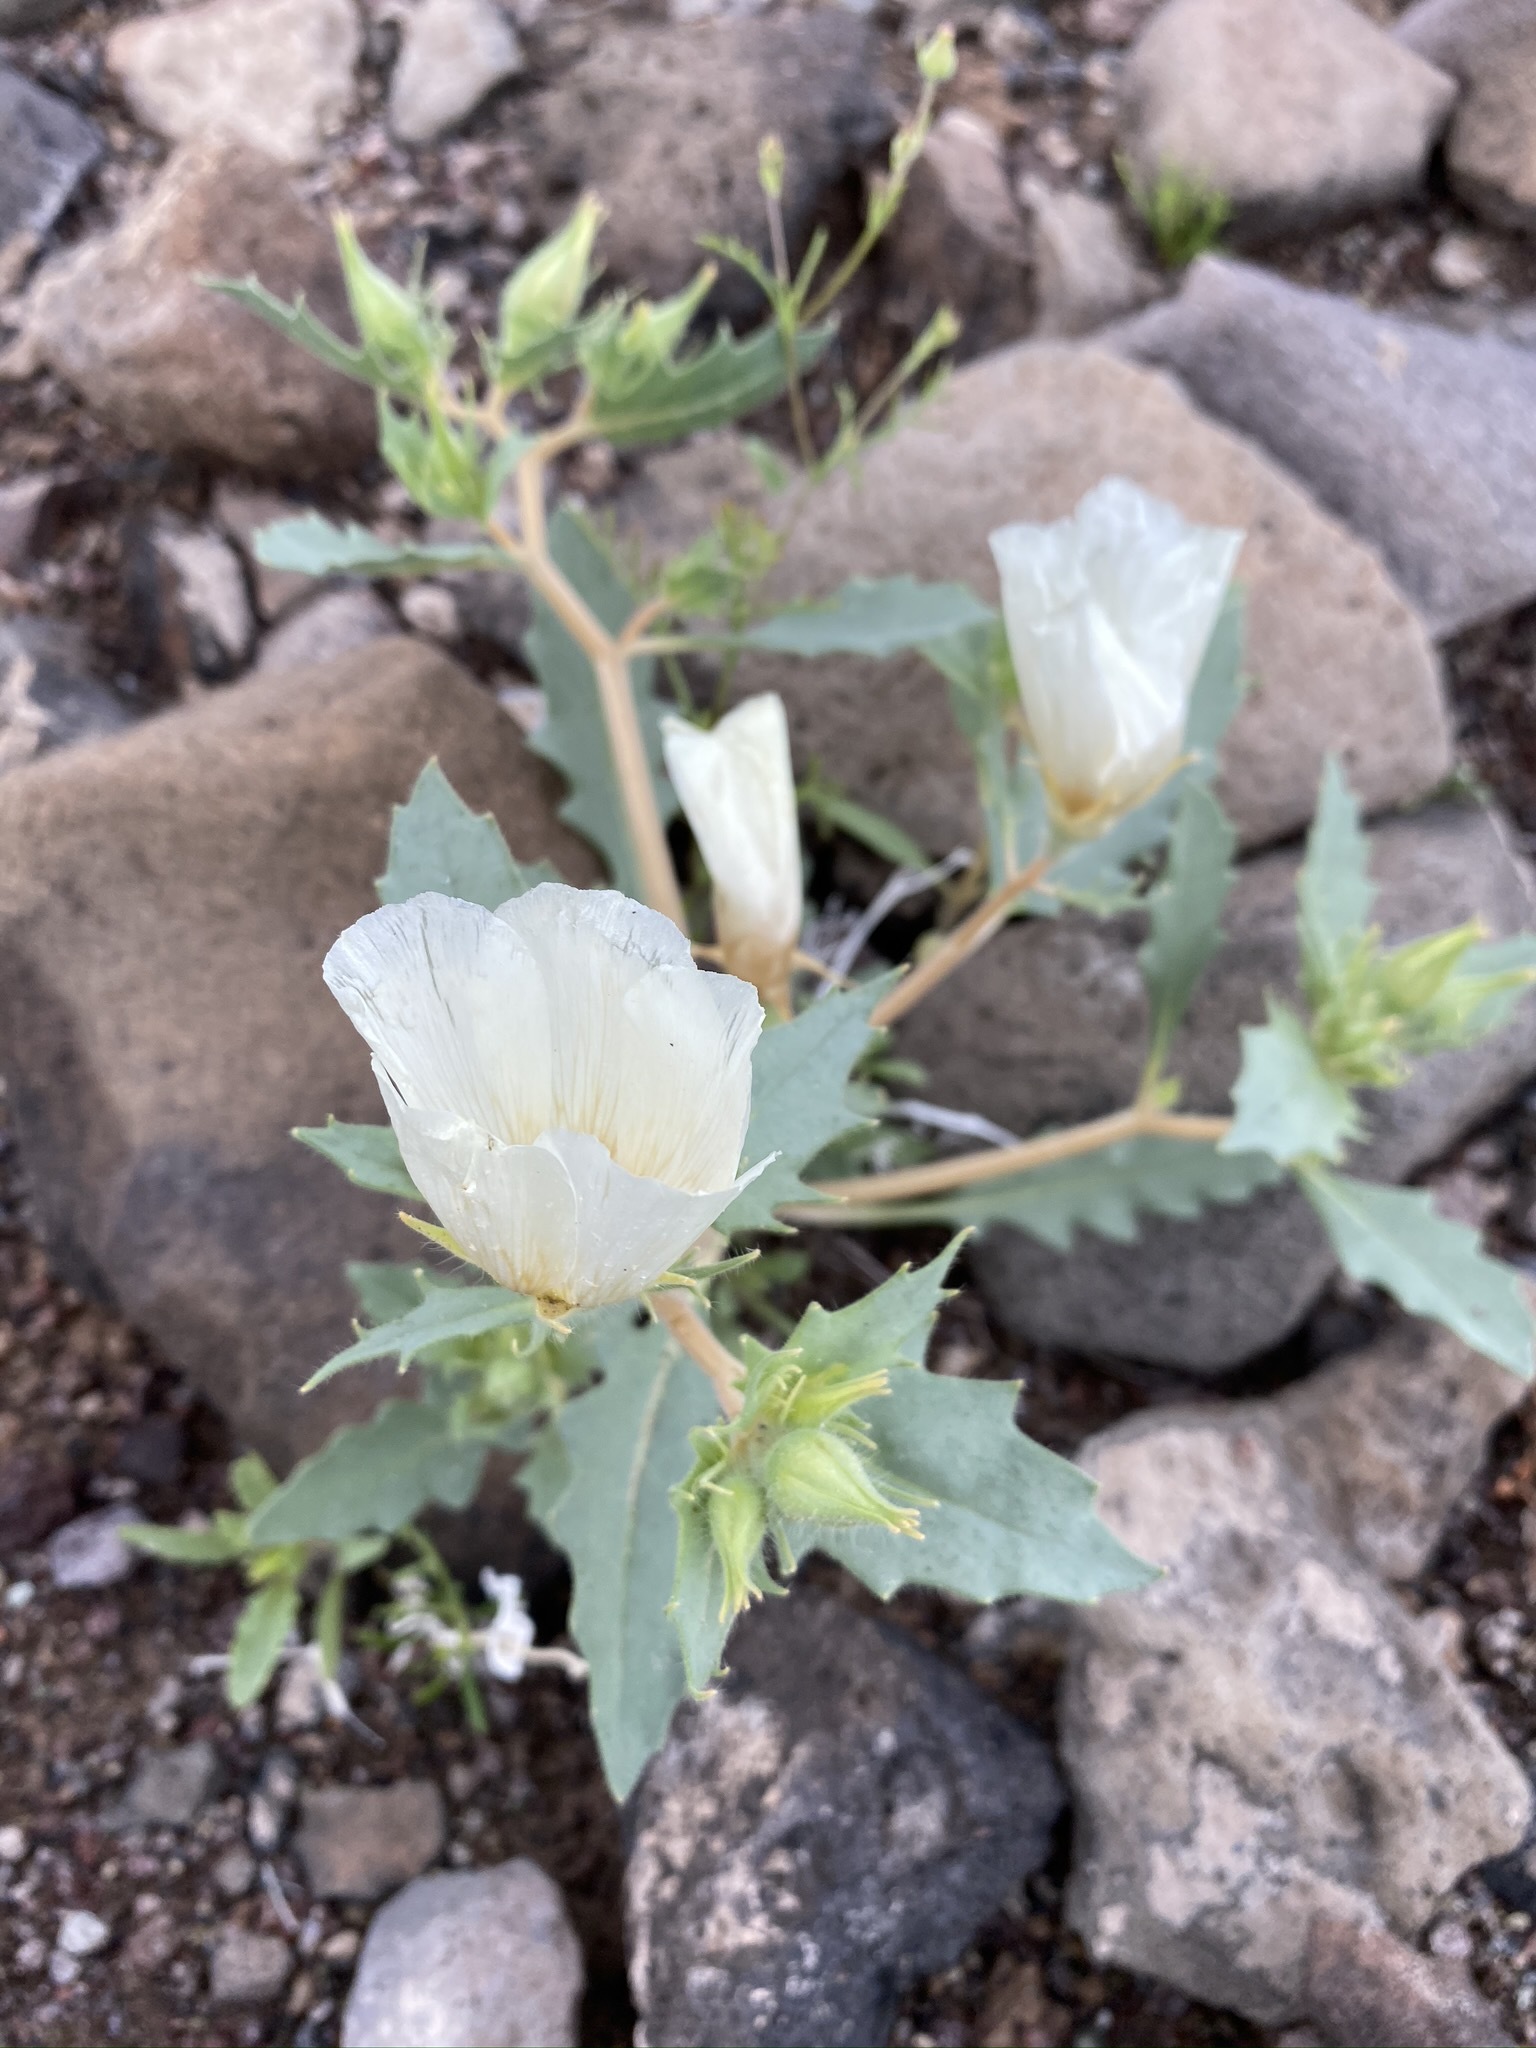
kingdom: Plantae
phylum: Tracheophyta
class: Magnoliopsida
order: Cornales
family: Loasaceae
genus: Mentzelia
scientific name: Mentzelia tricuspis
